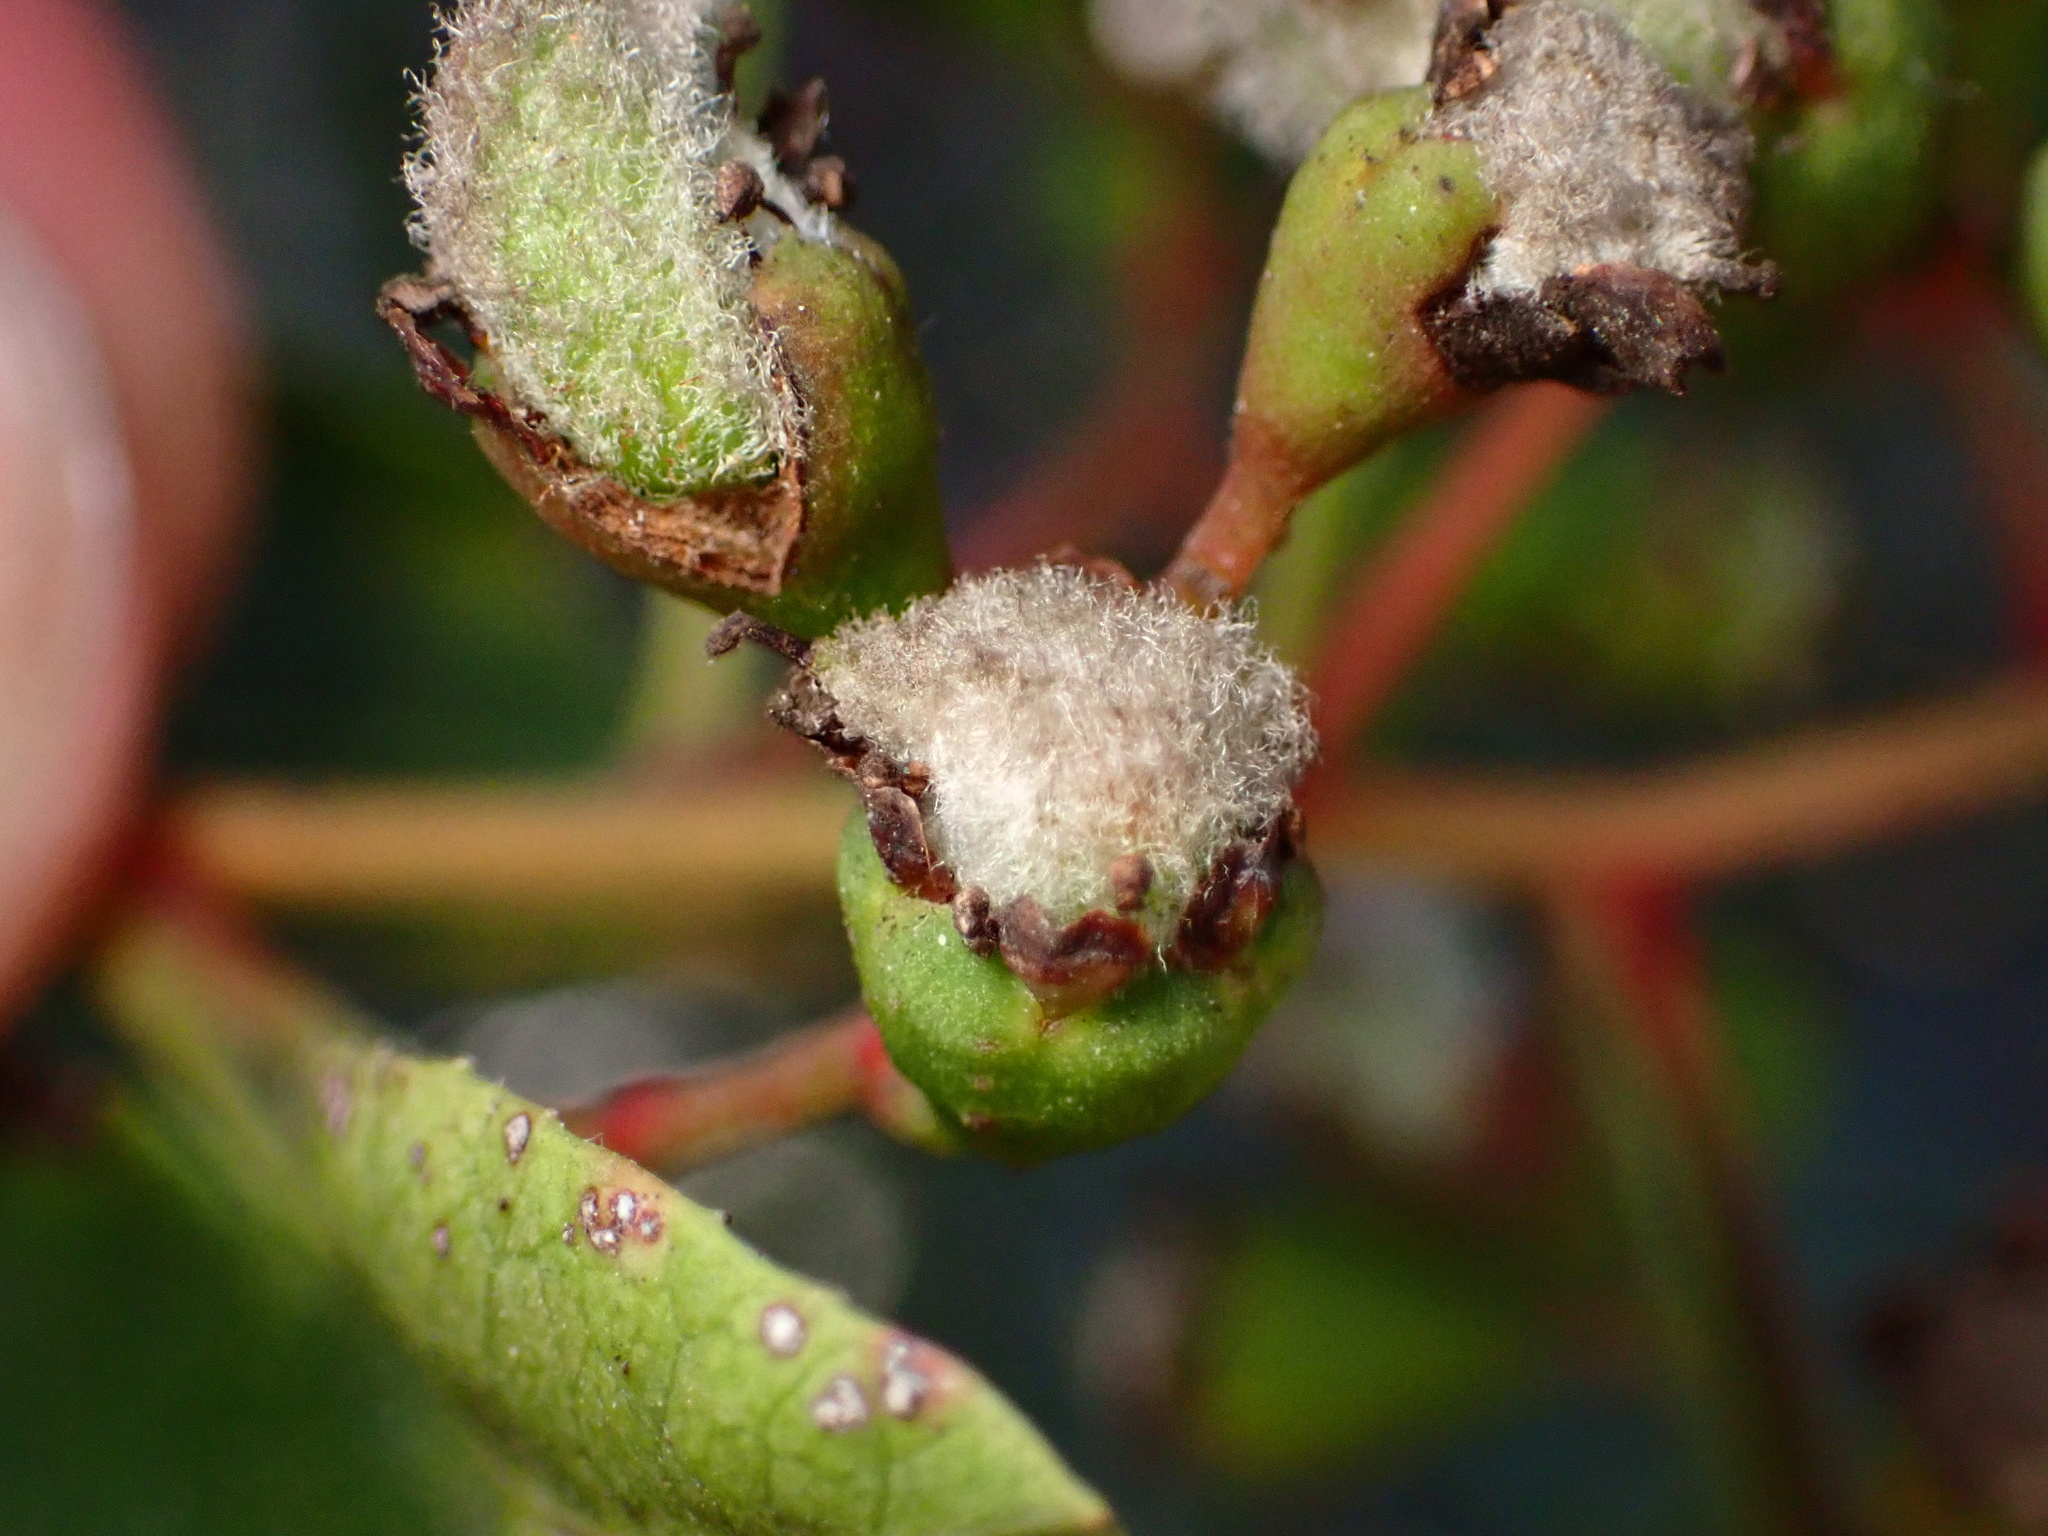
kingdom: Animalia
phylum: Arthropoda
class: Insecta
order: Diptera
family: Cecidomyiidae
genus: Asphondylia
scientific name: Asphondylia photiniae
